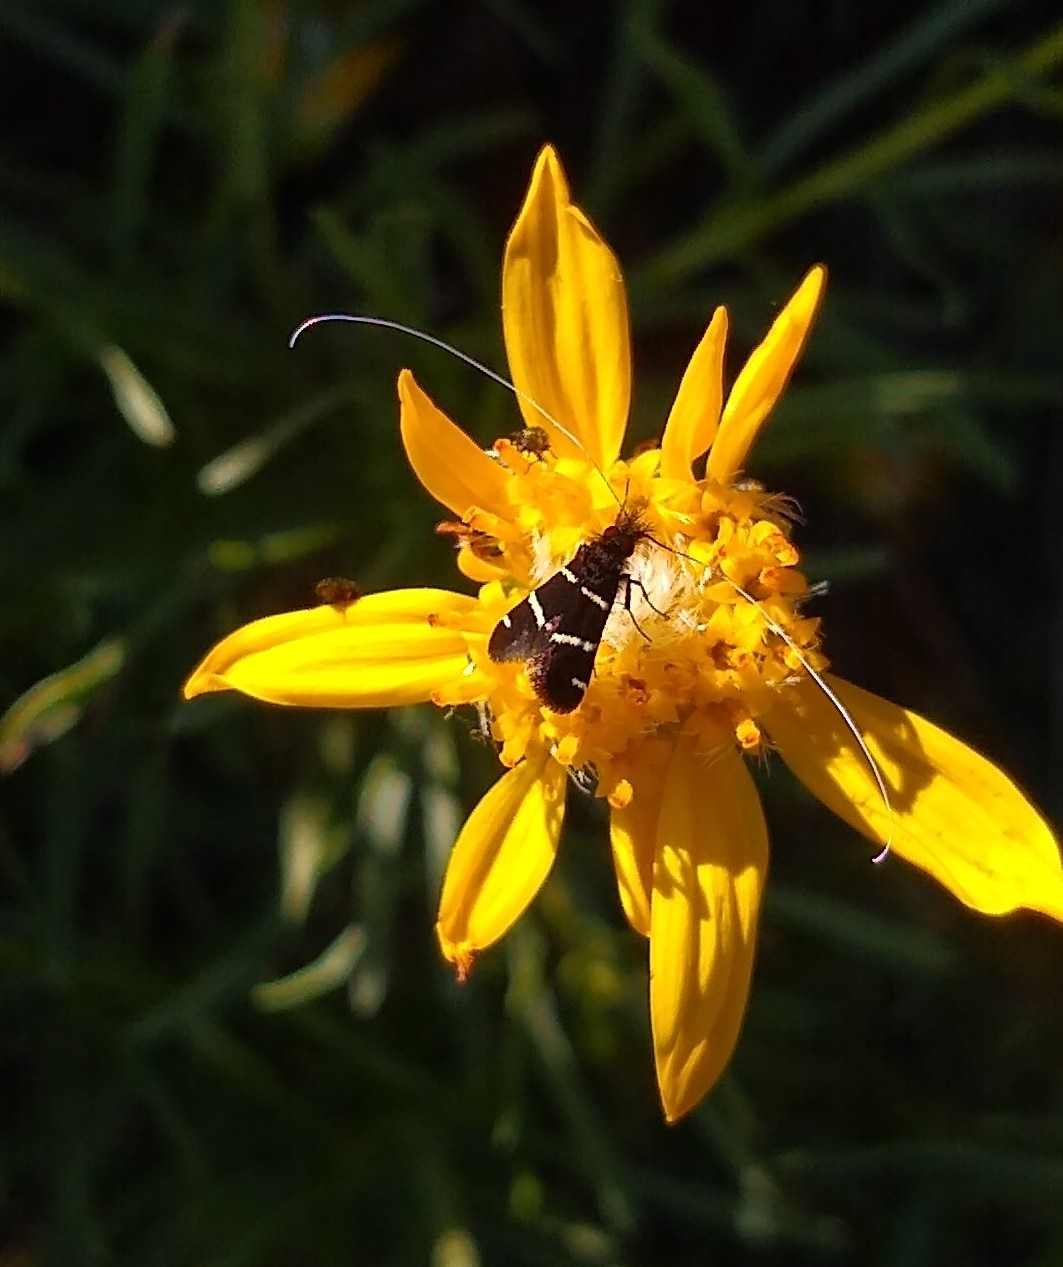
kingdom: Animalia
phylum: Arthropoda
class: Insecta
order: Lepidoptera
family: Adelidae
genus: Adela
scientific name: Adela trigrapha
